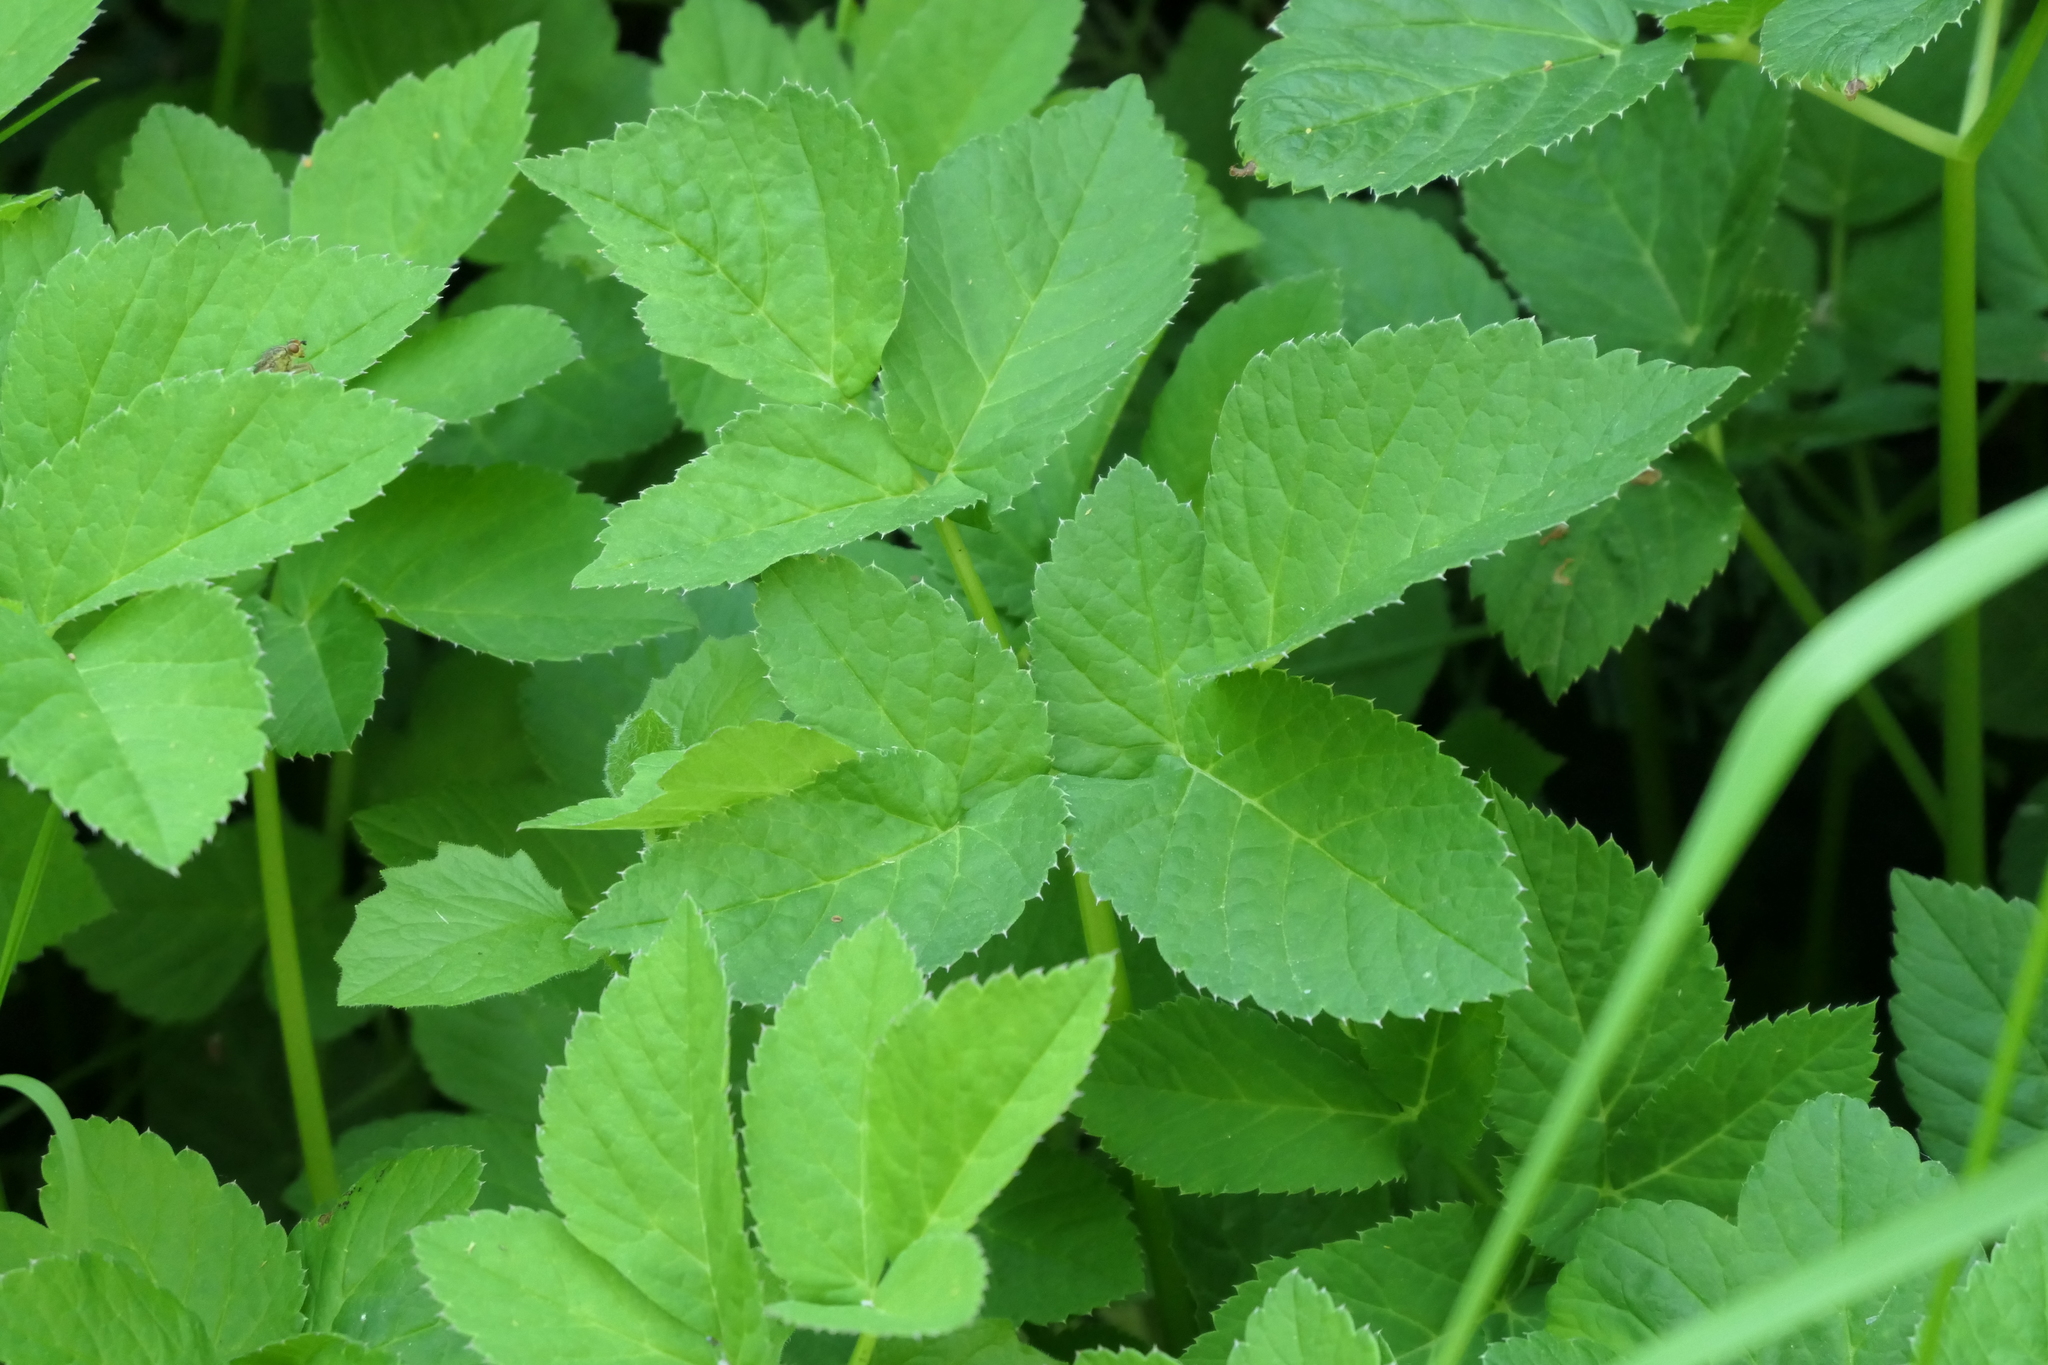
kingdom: Plantae
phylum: Tracheophyta
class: Magnoliopsida
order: Apiales
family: Apiaceae
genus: Aegopodium
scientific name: Aegopodium podagraria
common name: Ground-elder
